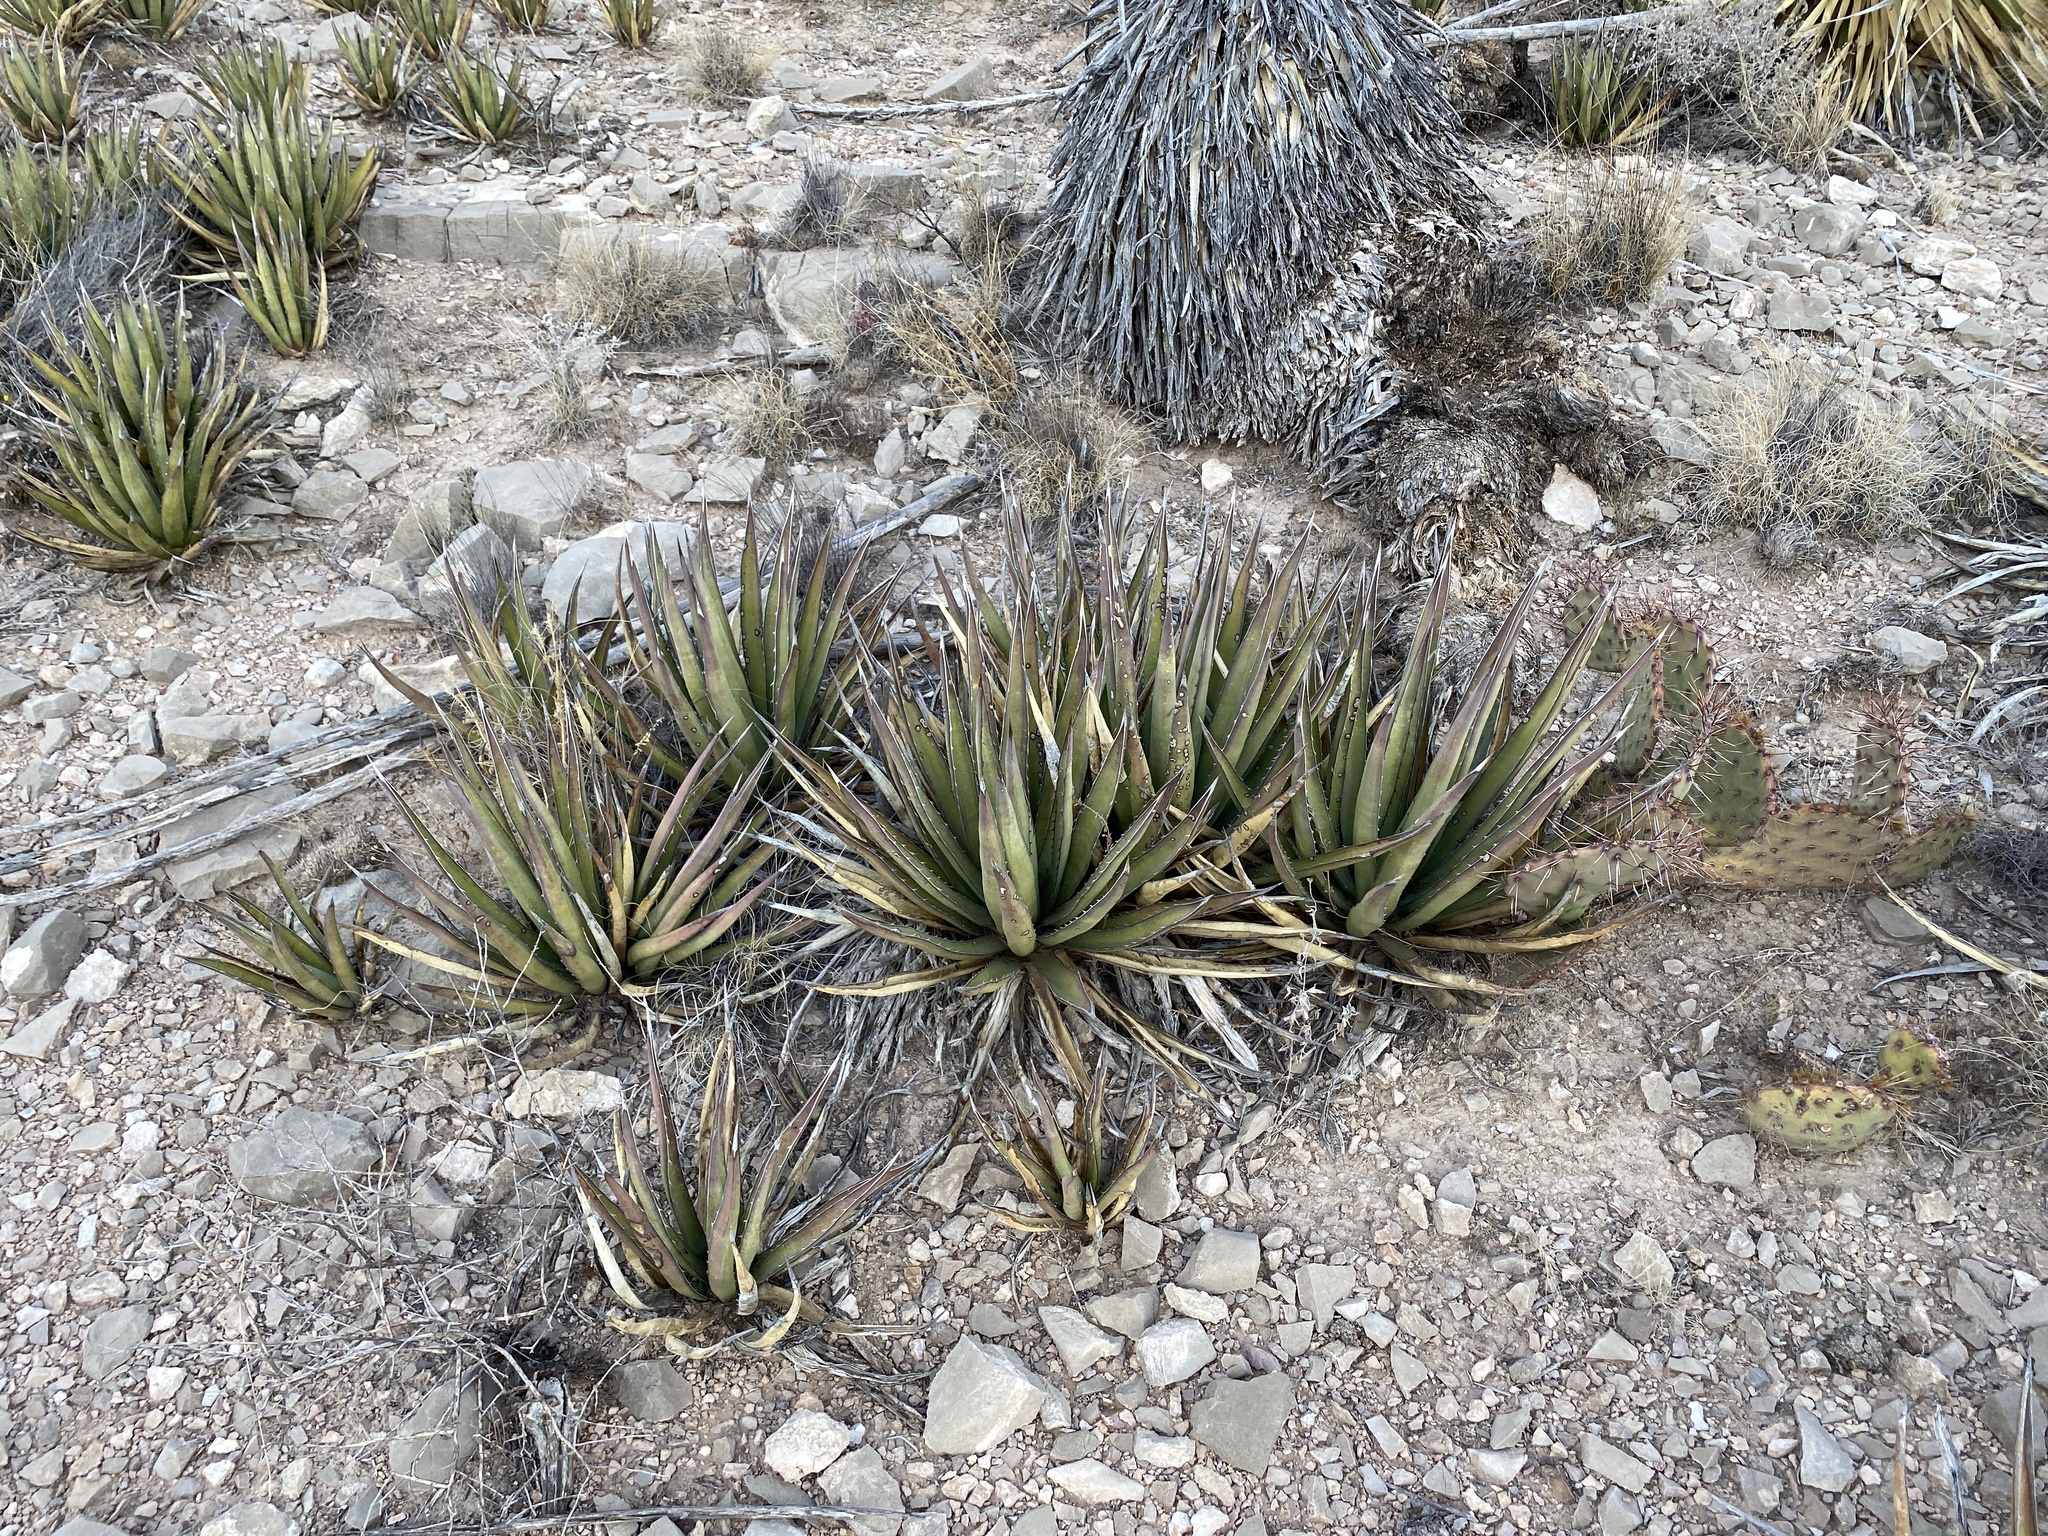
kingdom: Plantae
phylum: Tracheophyta
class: Liliopsida
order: Asparagales
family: Asparagaceae
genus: Agave
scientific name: Agave lechuguilla
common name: Lecheguilla agave
